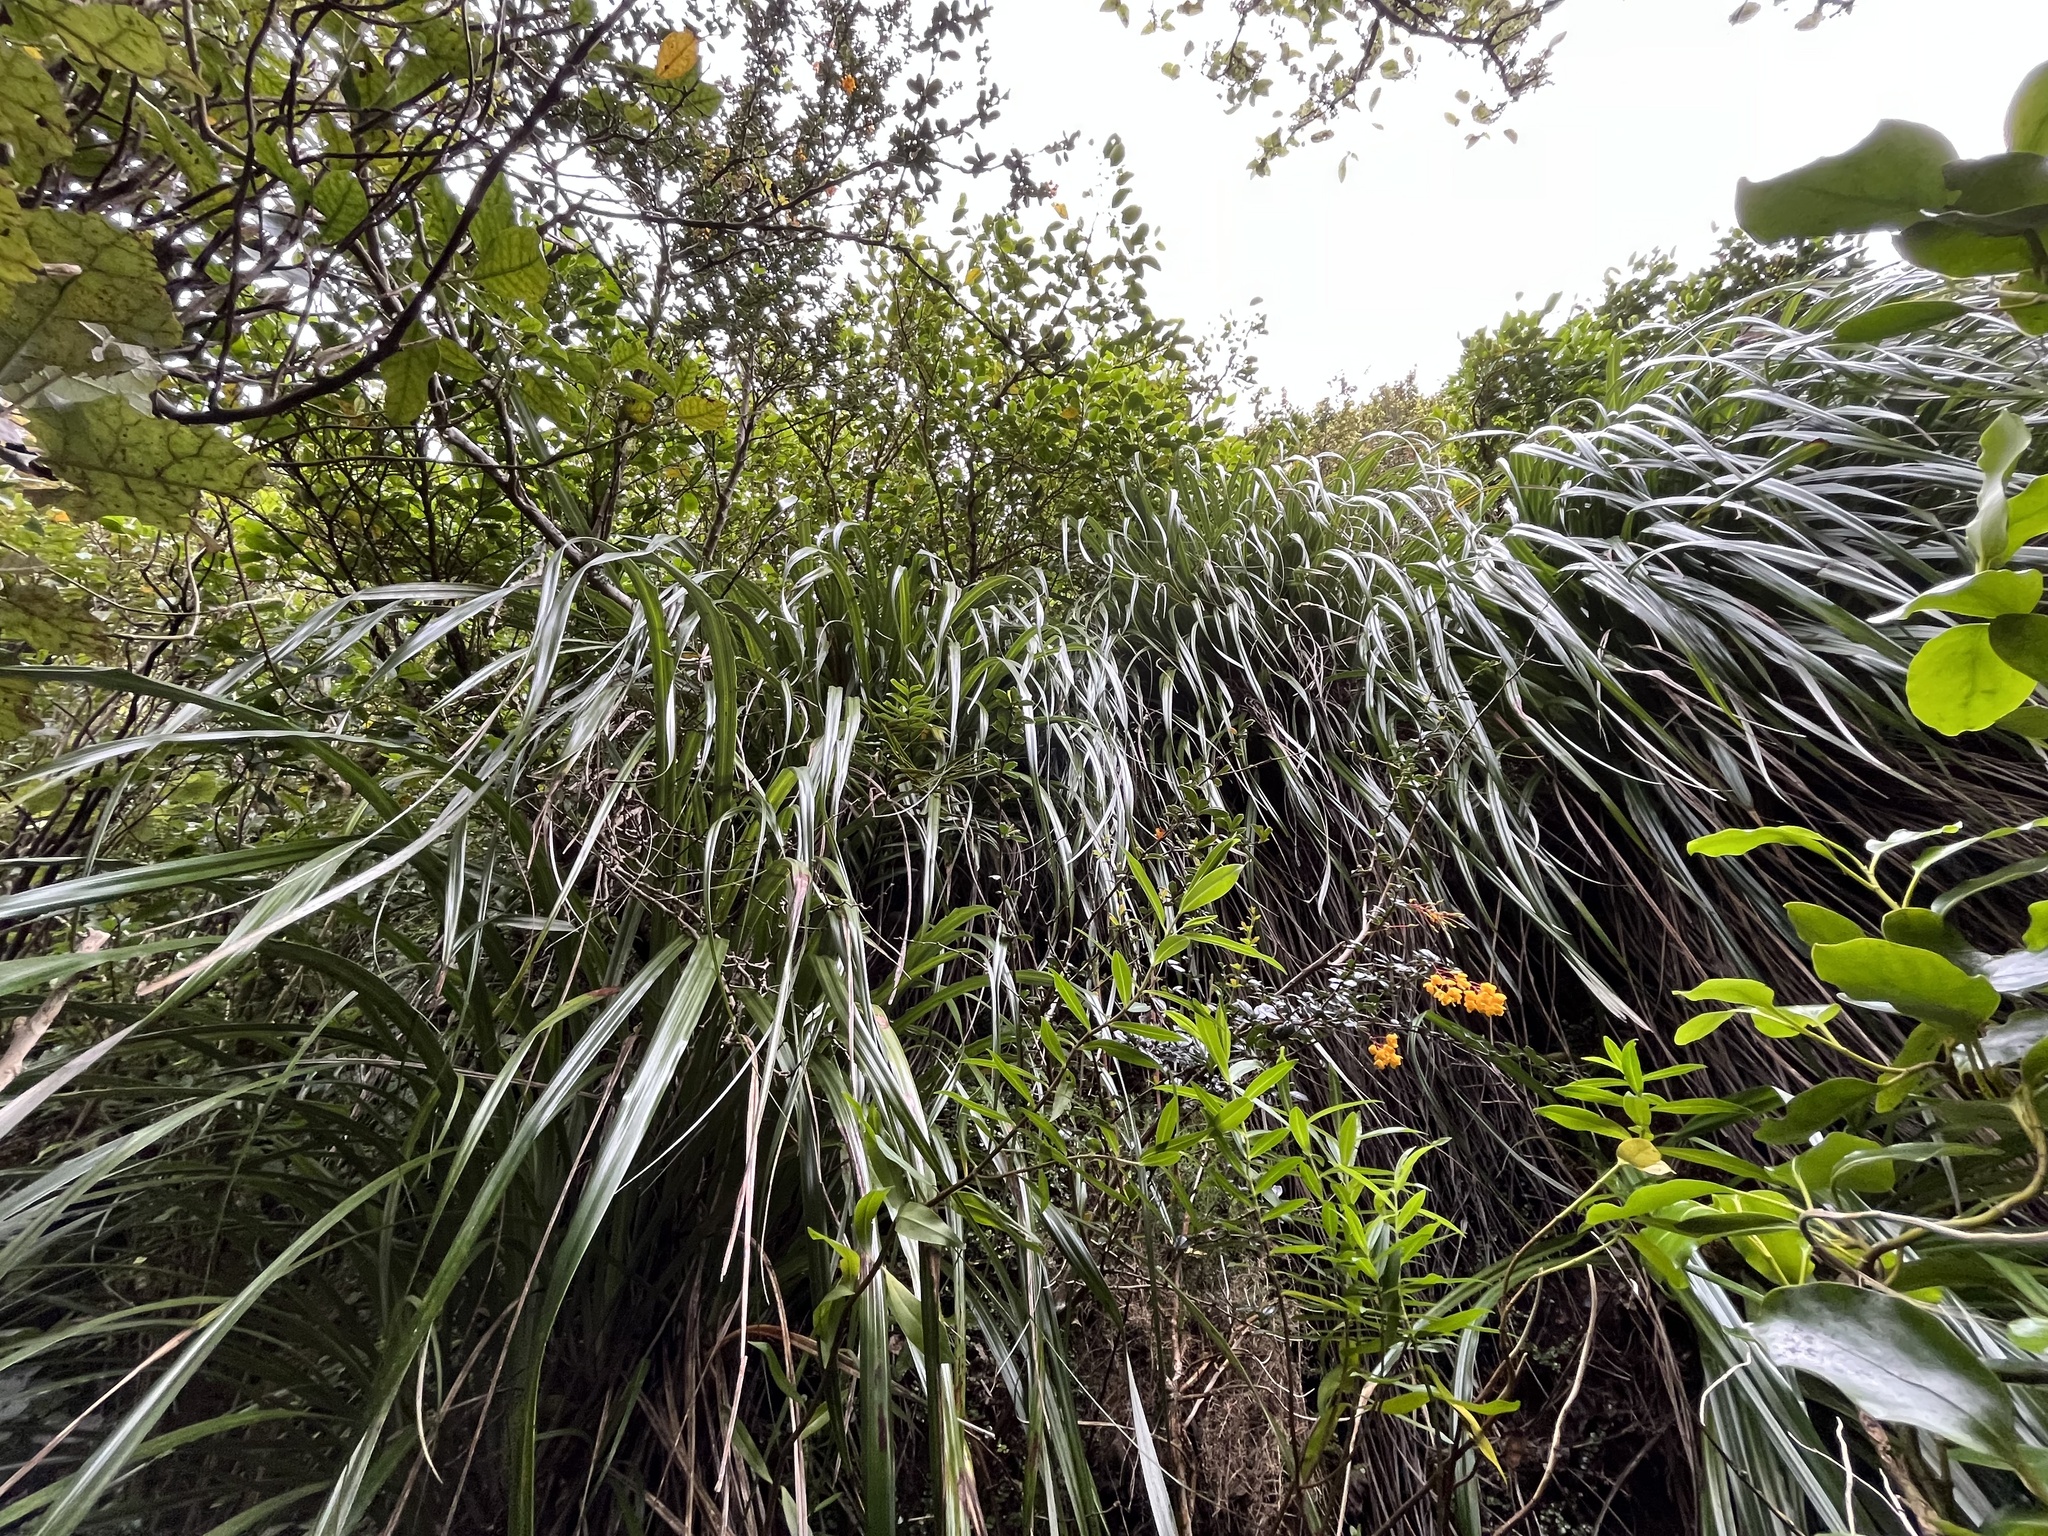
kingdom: Plantae
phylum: Tracheophyta
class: Liliopsida
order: Pandanales
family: Pandanaceae
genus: Freycinetia
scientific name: Freycinetia banksii
